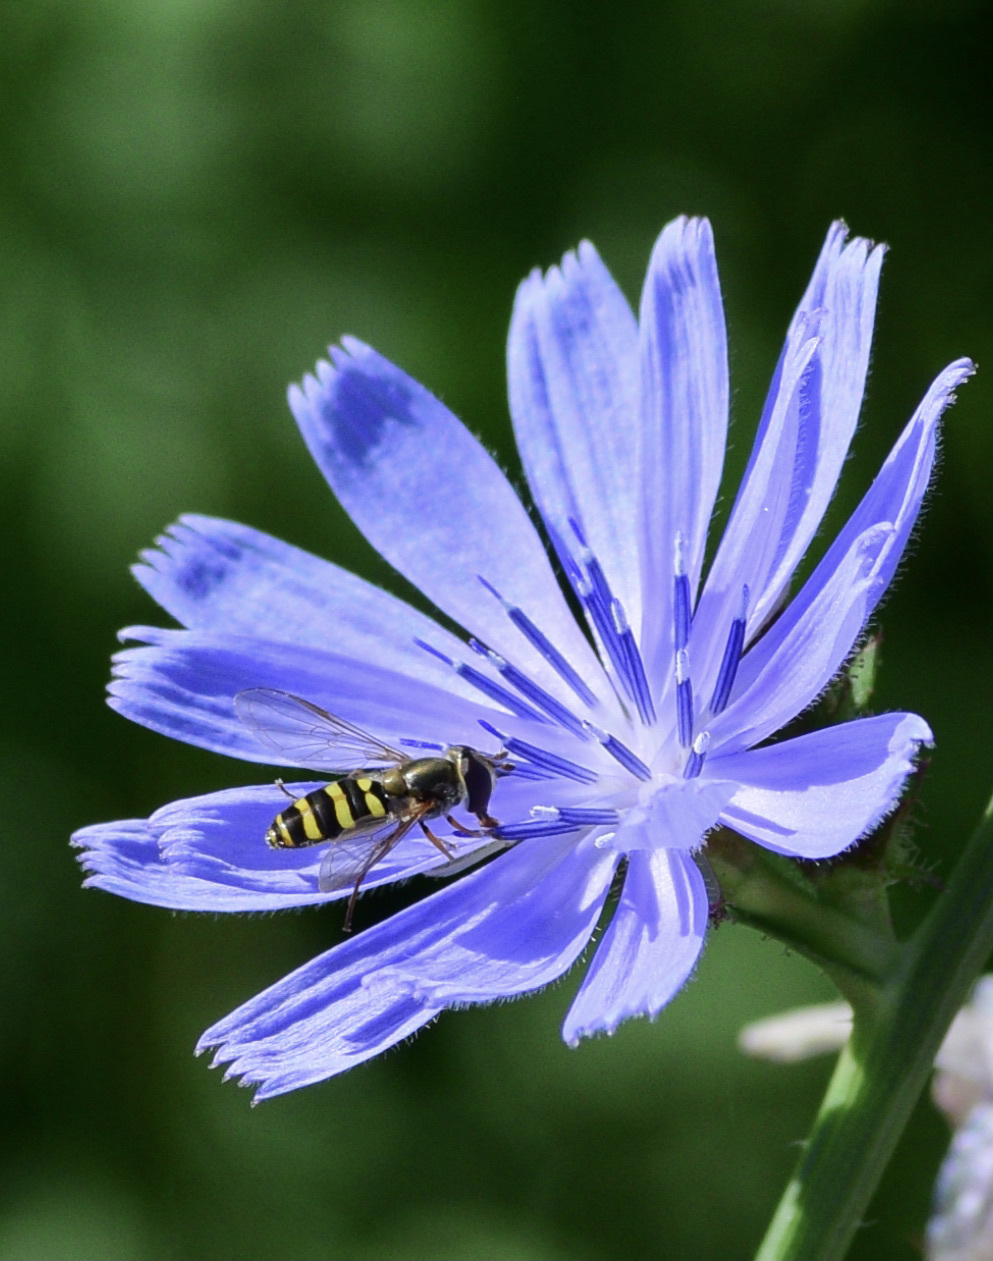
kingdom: Animalia
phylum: Arthropoda
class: Insecta
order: Diptera
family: Syrphidae
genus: Eupeodes
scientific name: Eupeodes
